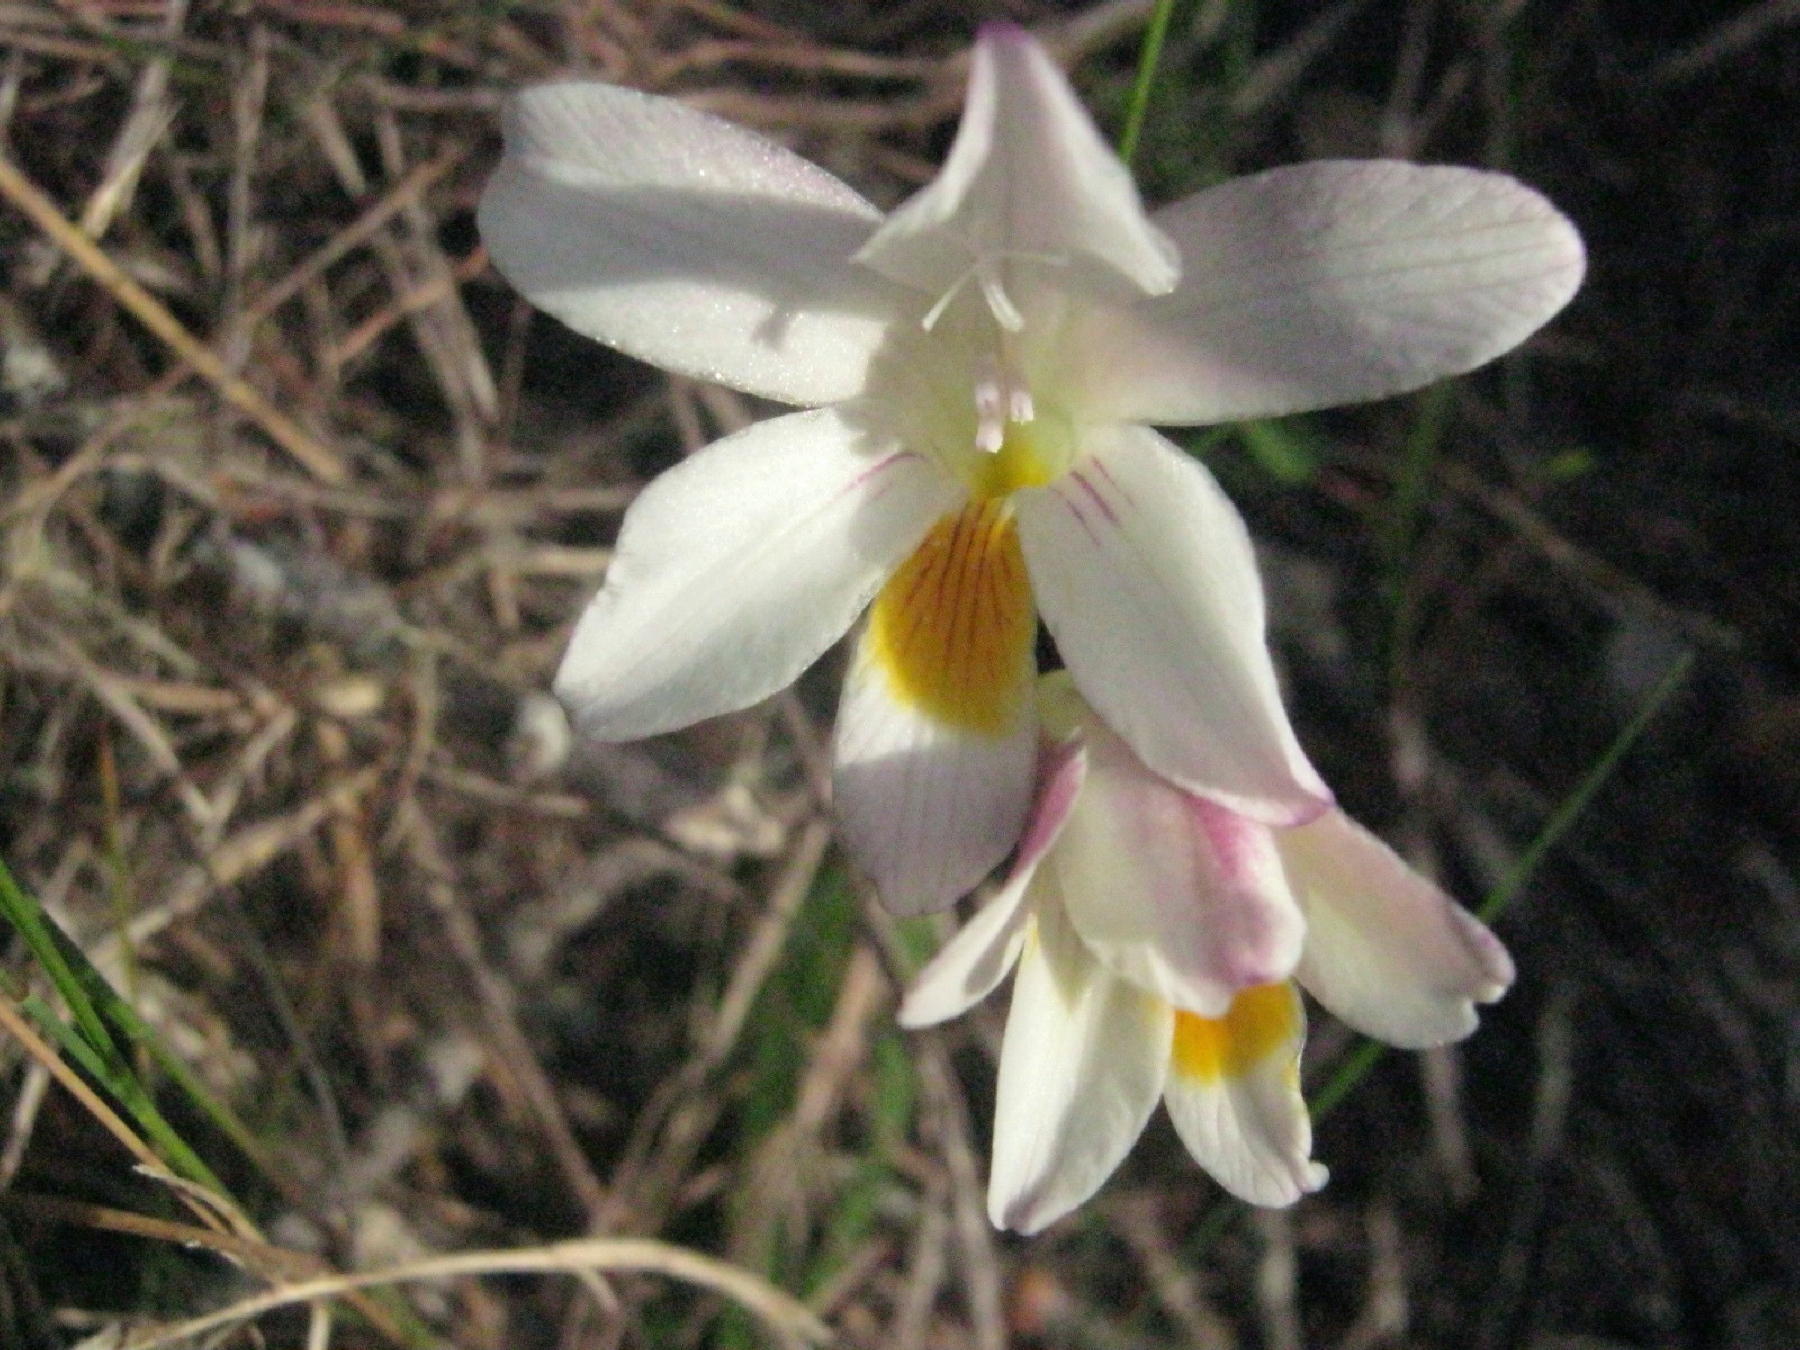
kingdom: Plantae
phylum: Tracheophyta
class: Liliopsida
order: Asparagales
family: Iridaceae
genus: Freesia
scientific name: Freesia leichtlinii
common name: Freesia
